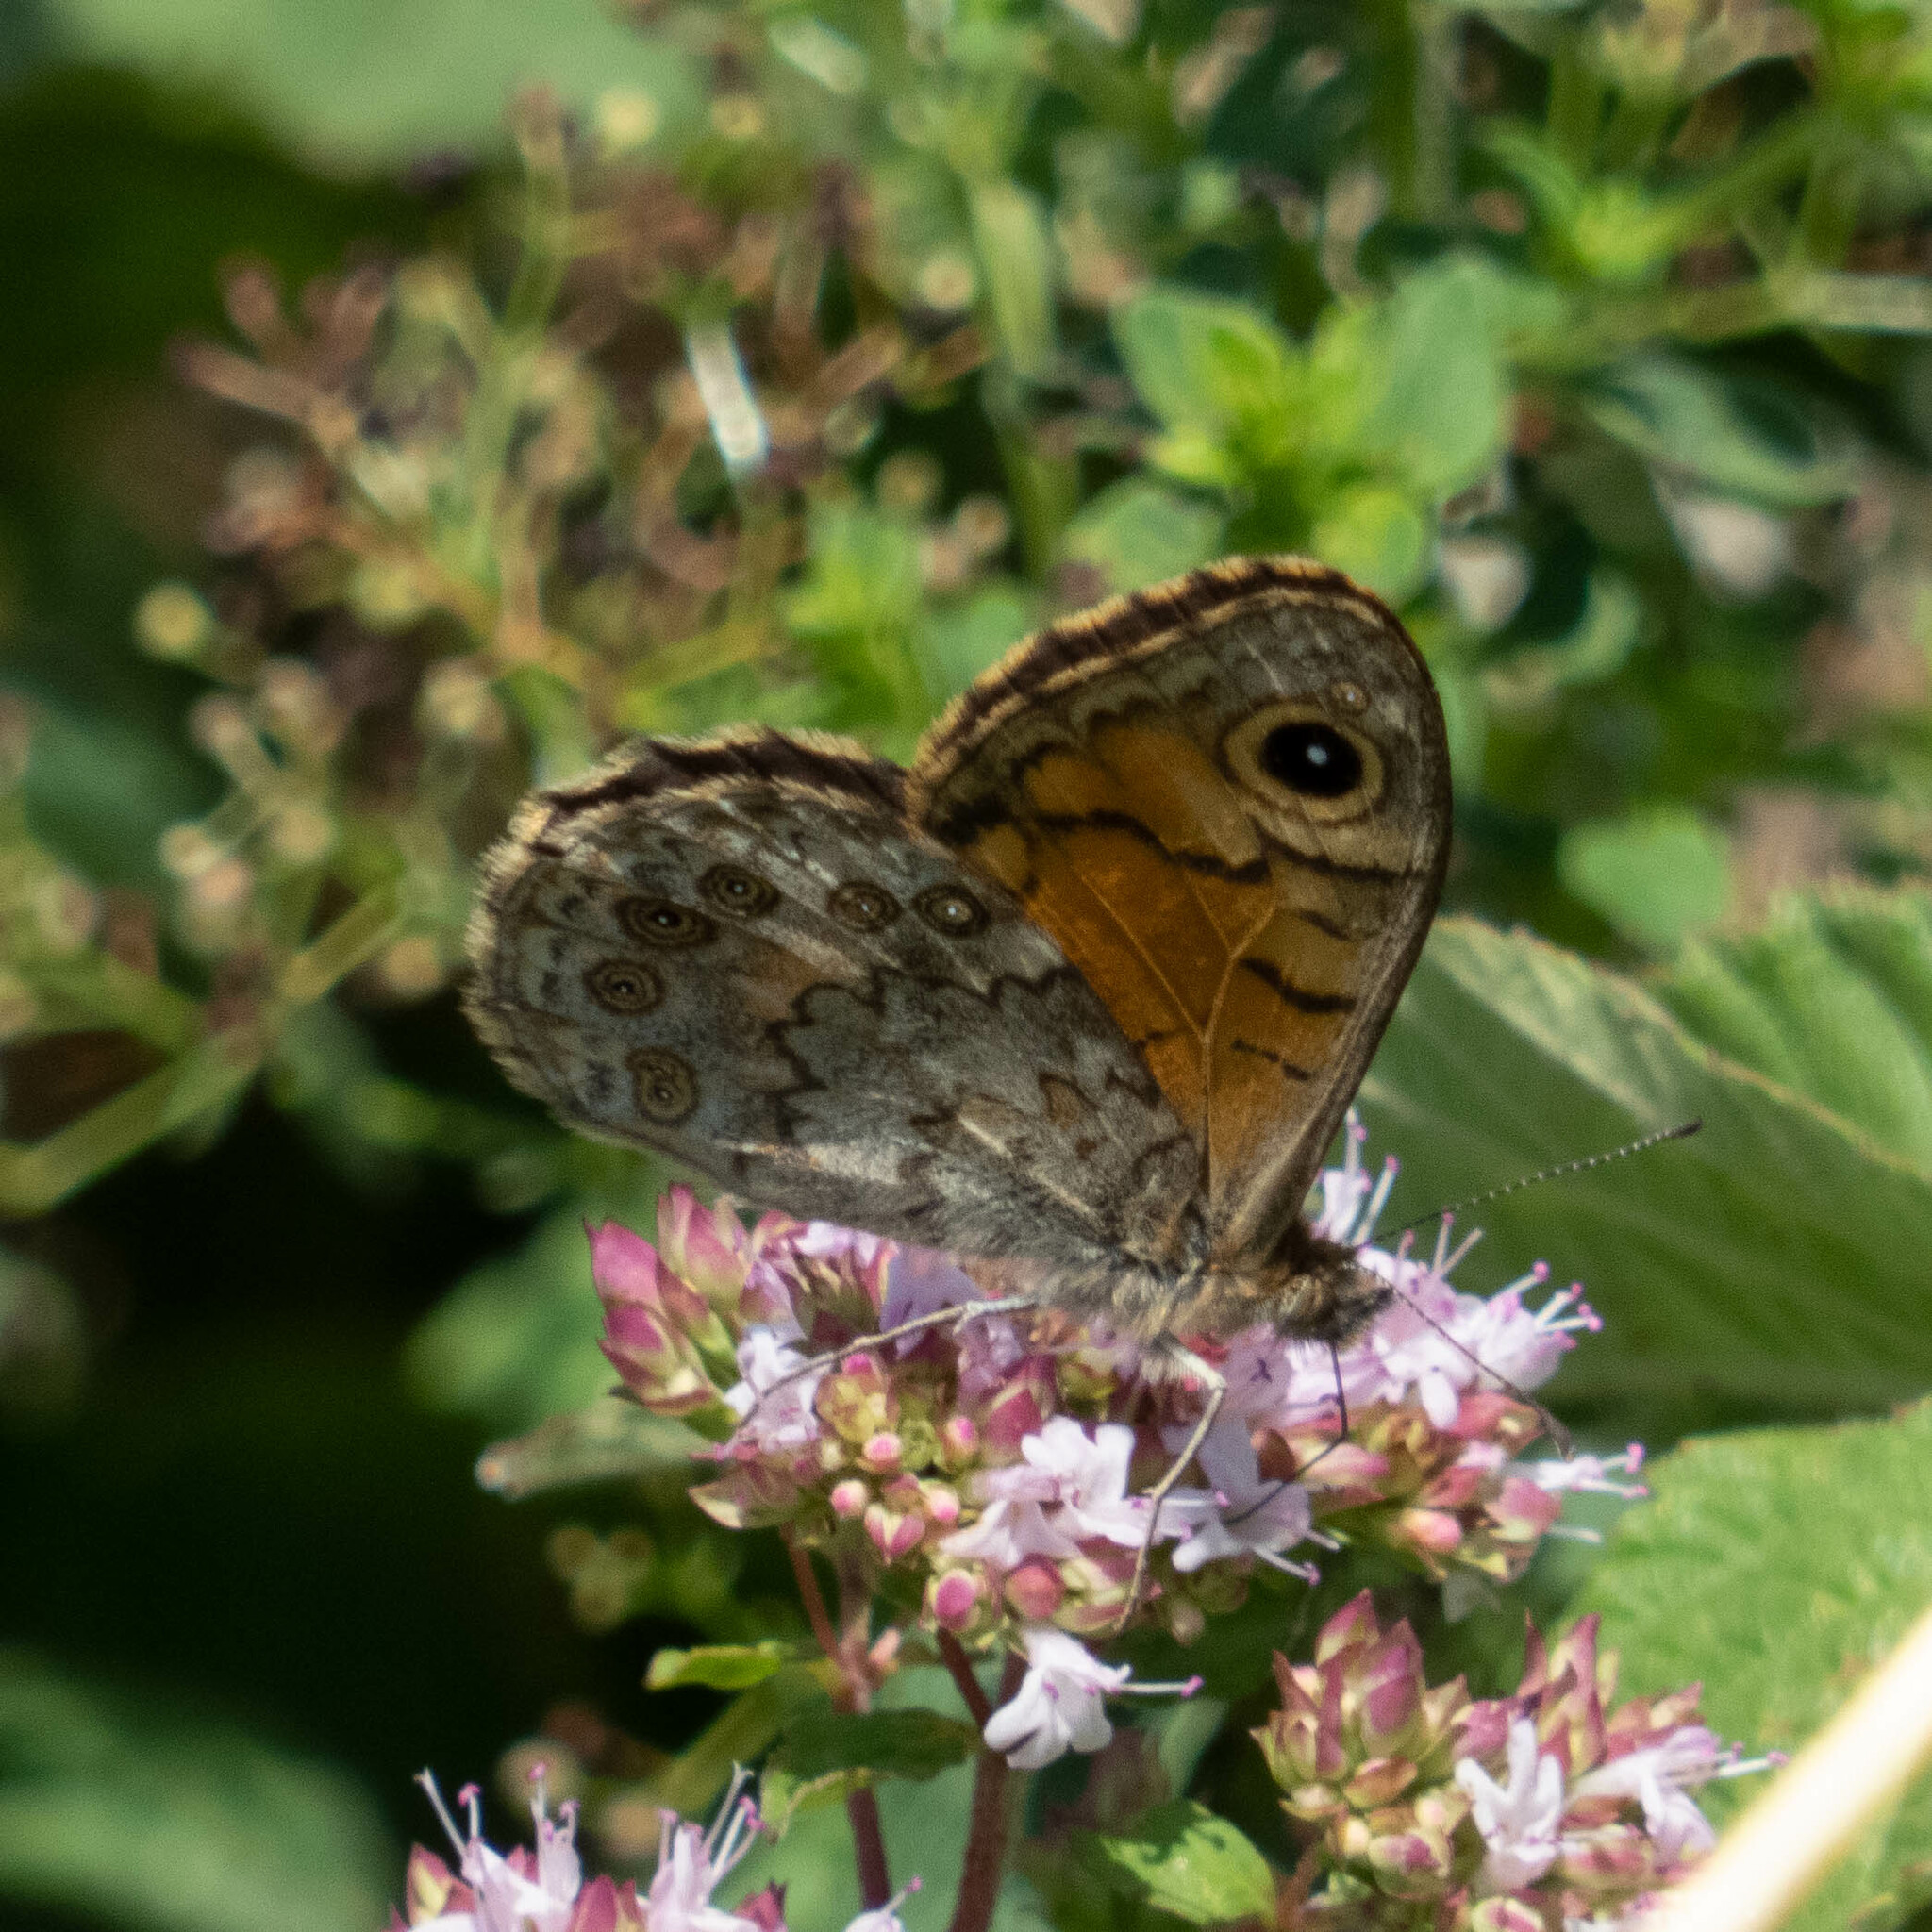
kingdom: Animalia
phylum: Arthropoda
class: Insecta
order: Lepidoptera
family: Nymphalidae
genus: Pararge
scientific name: Pararge Lasiommata megera
